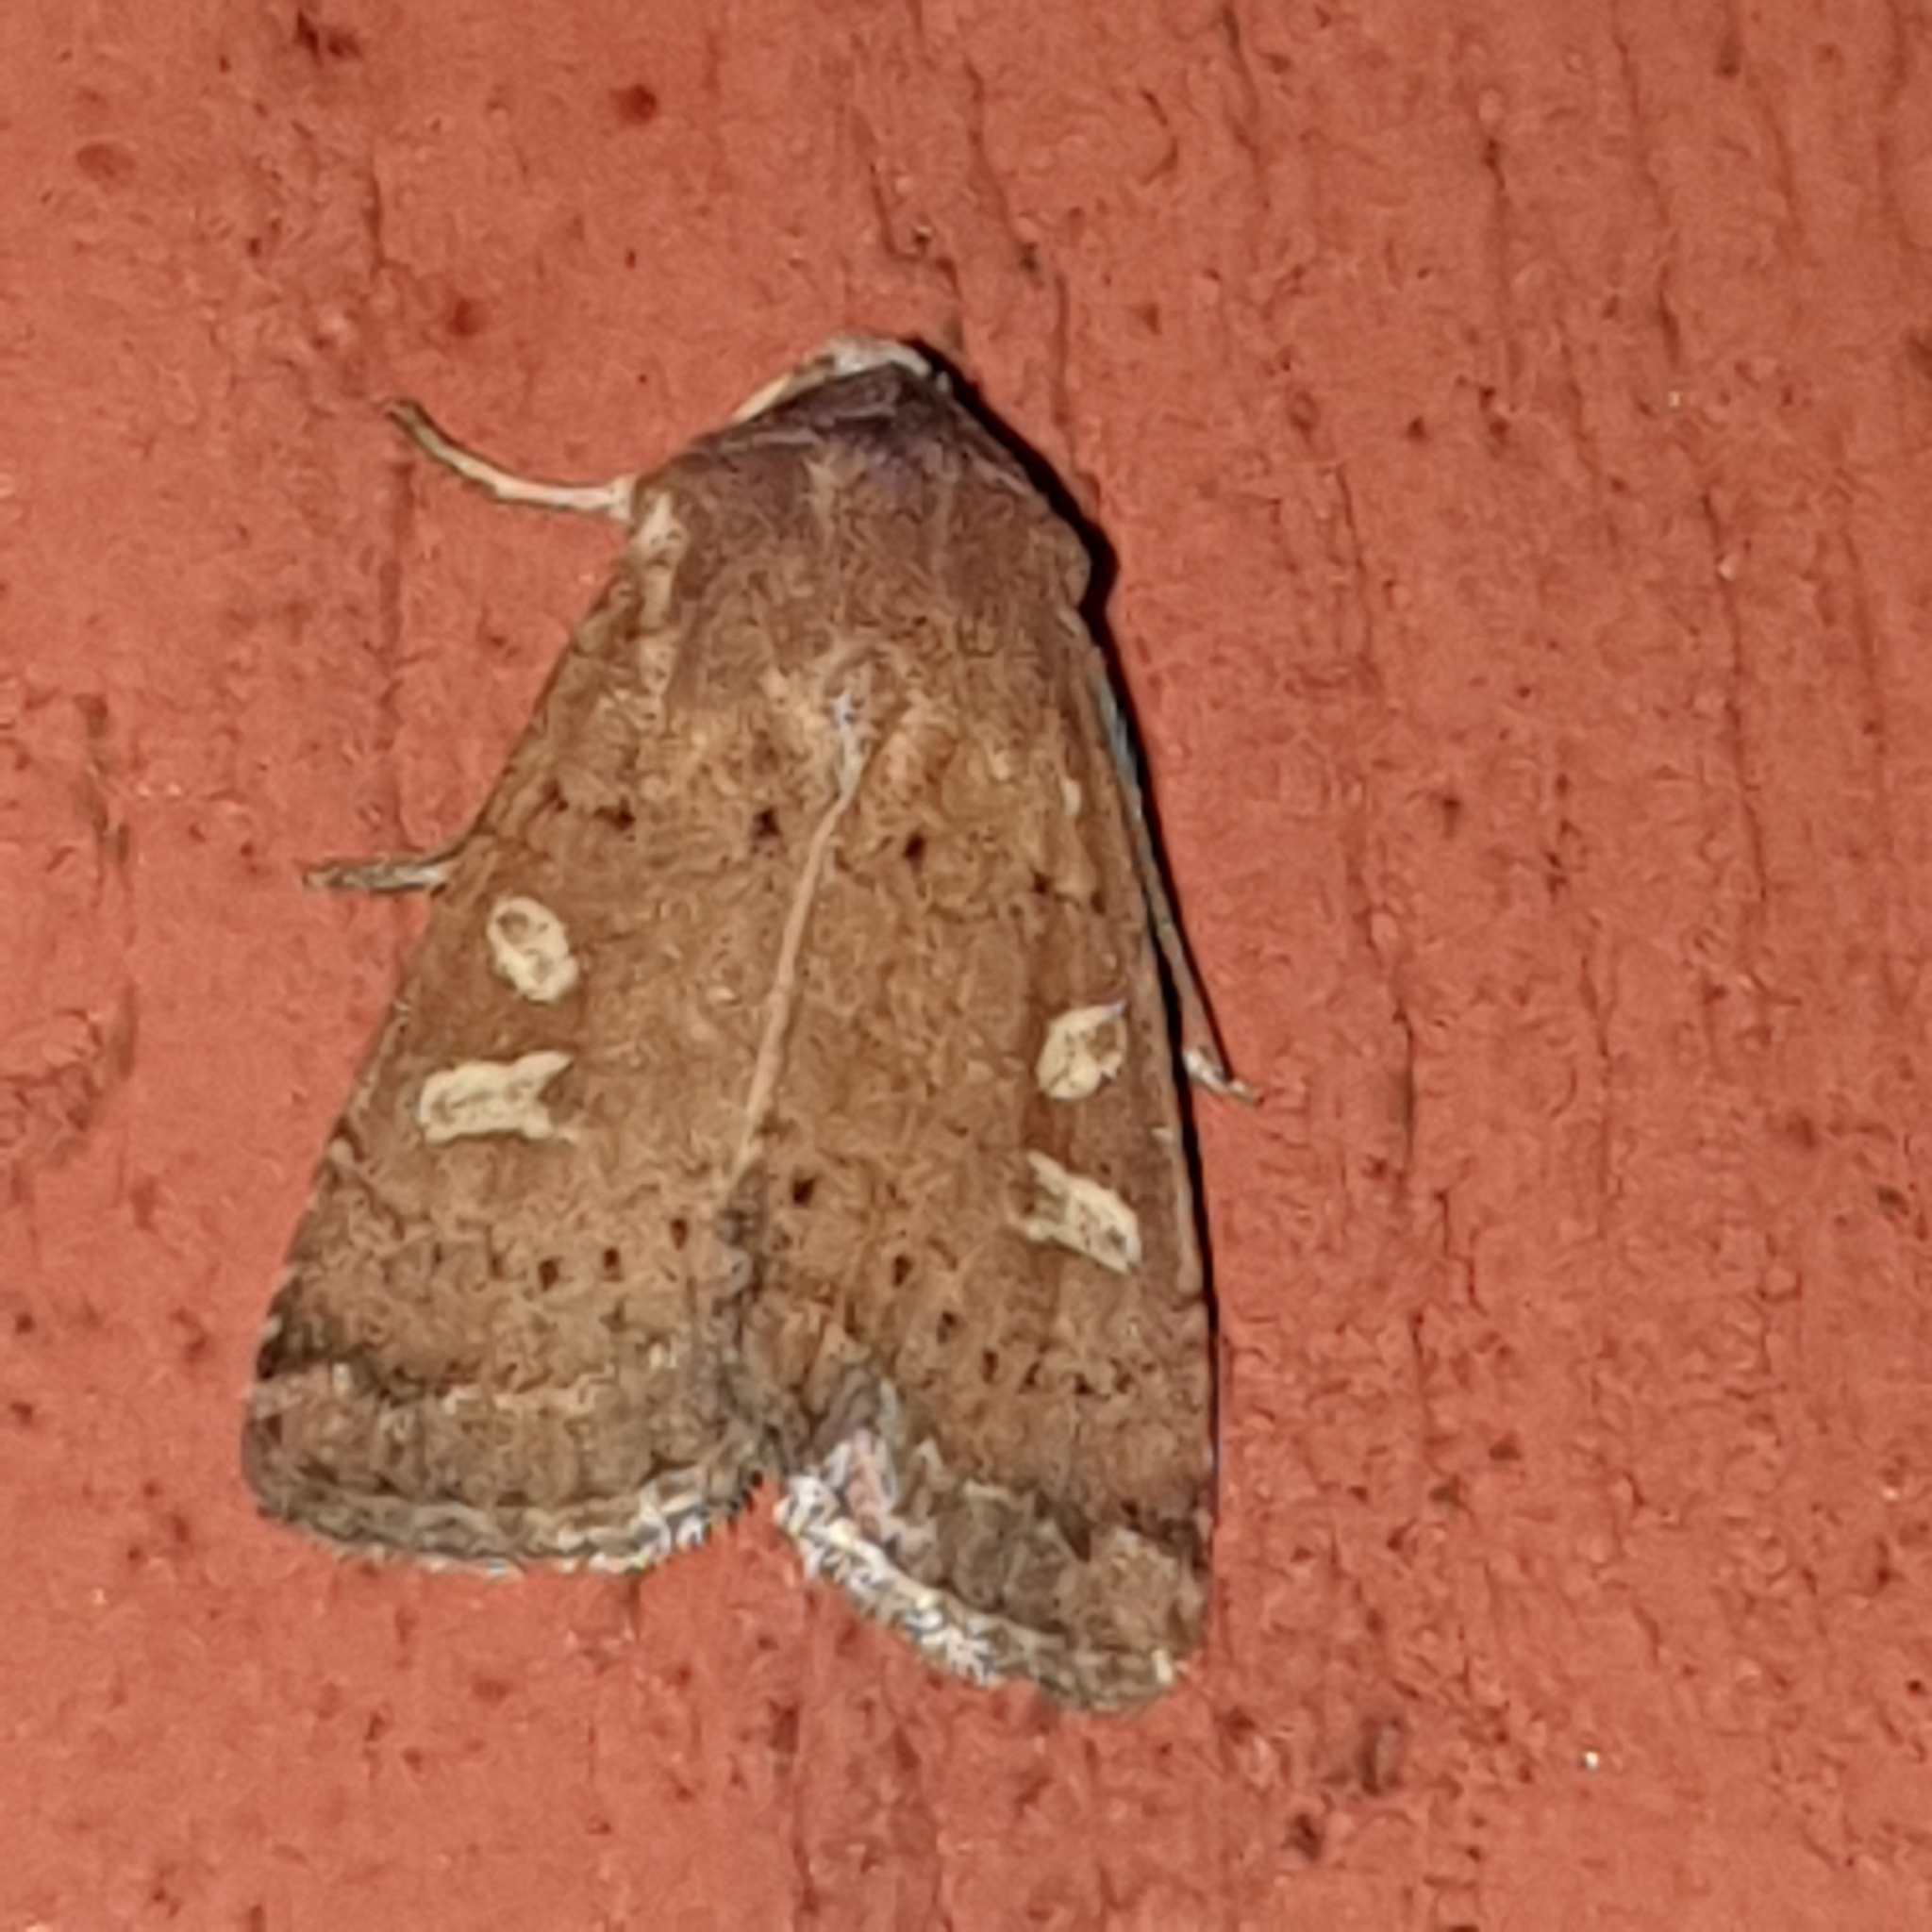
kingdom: Animalia
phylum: Arthropoda
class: Insecta
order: Lepidoptera
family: Noctuidae
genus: Xestia
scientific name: Xestia xanthographa
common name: Square-spot rustic
